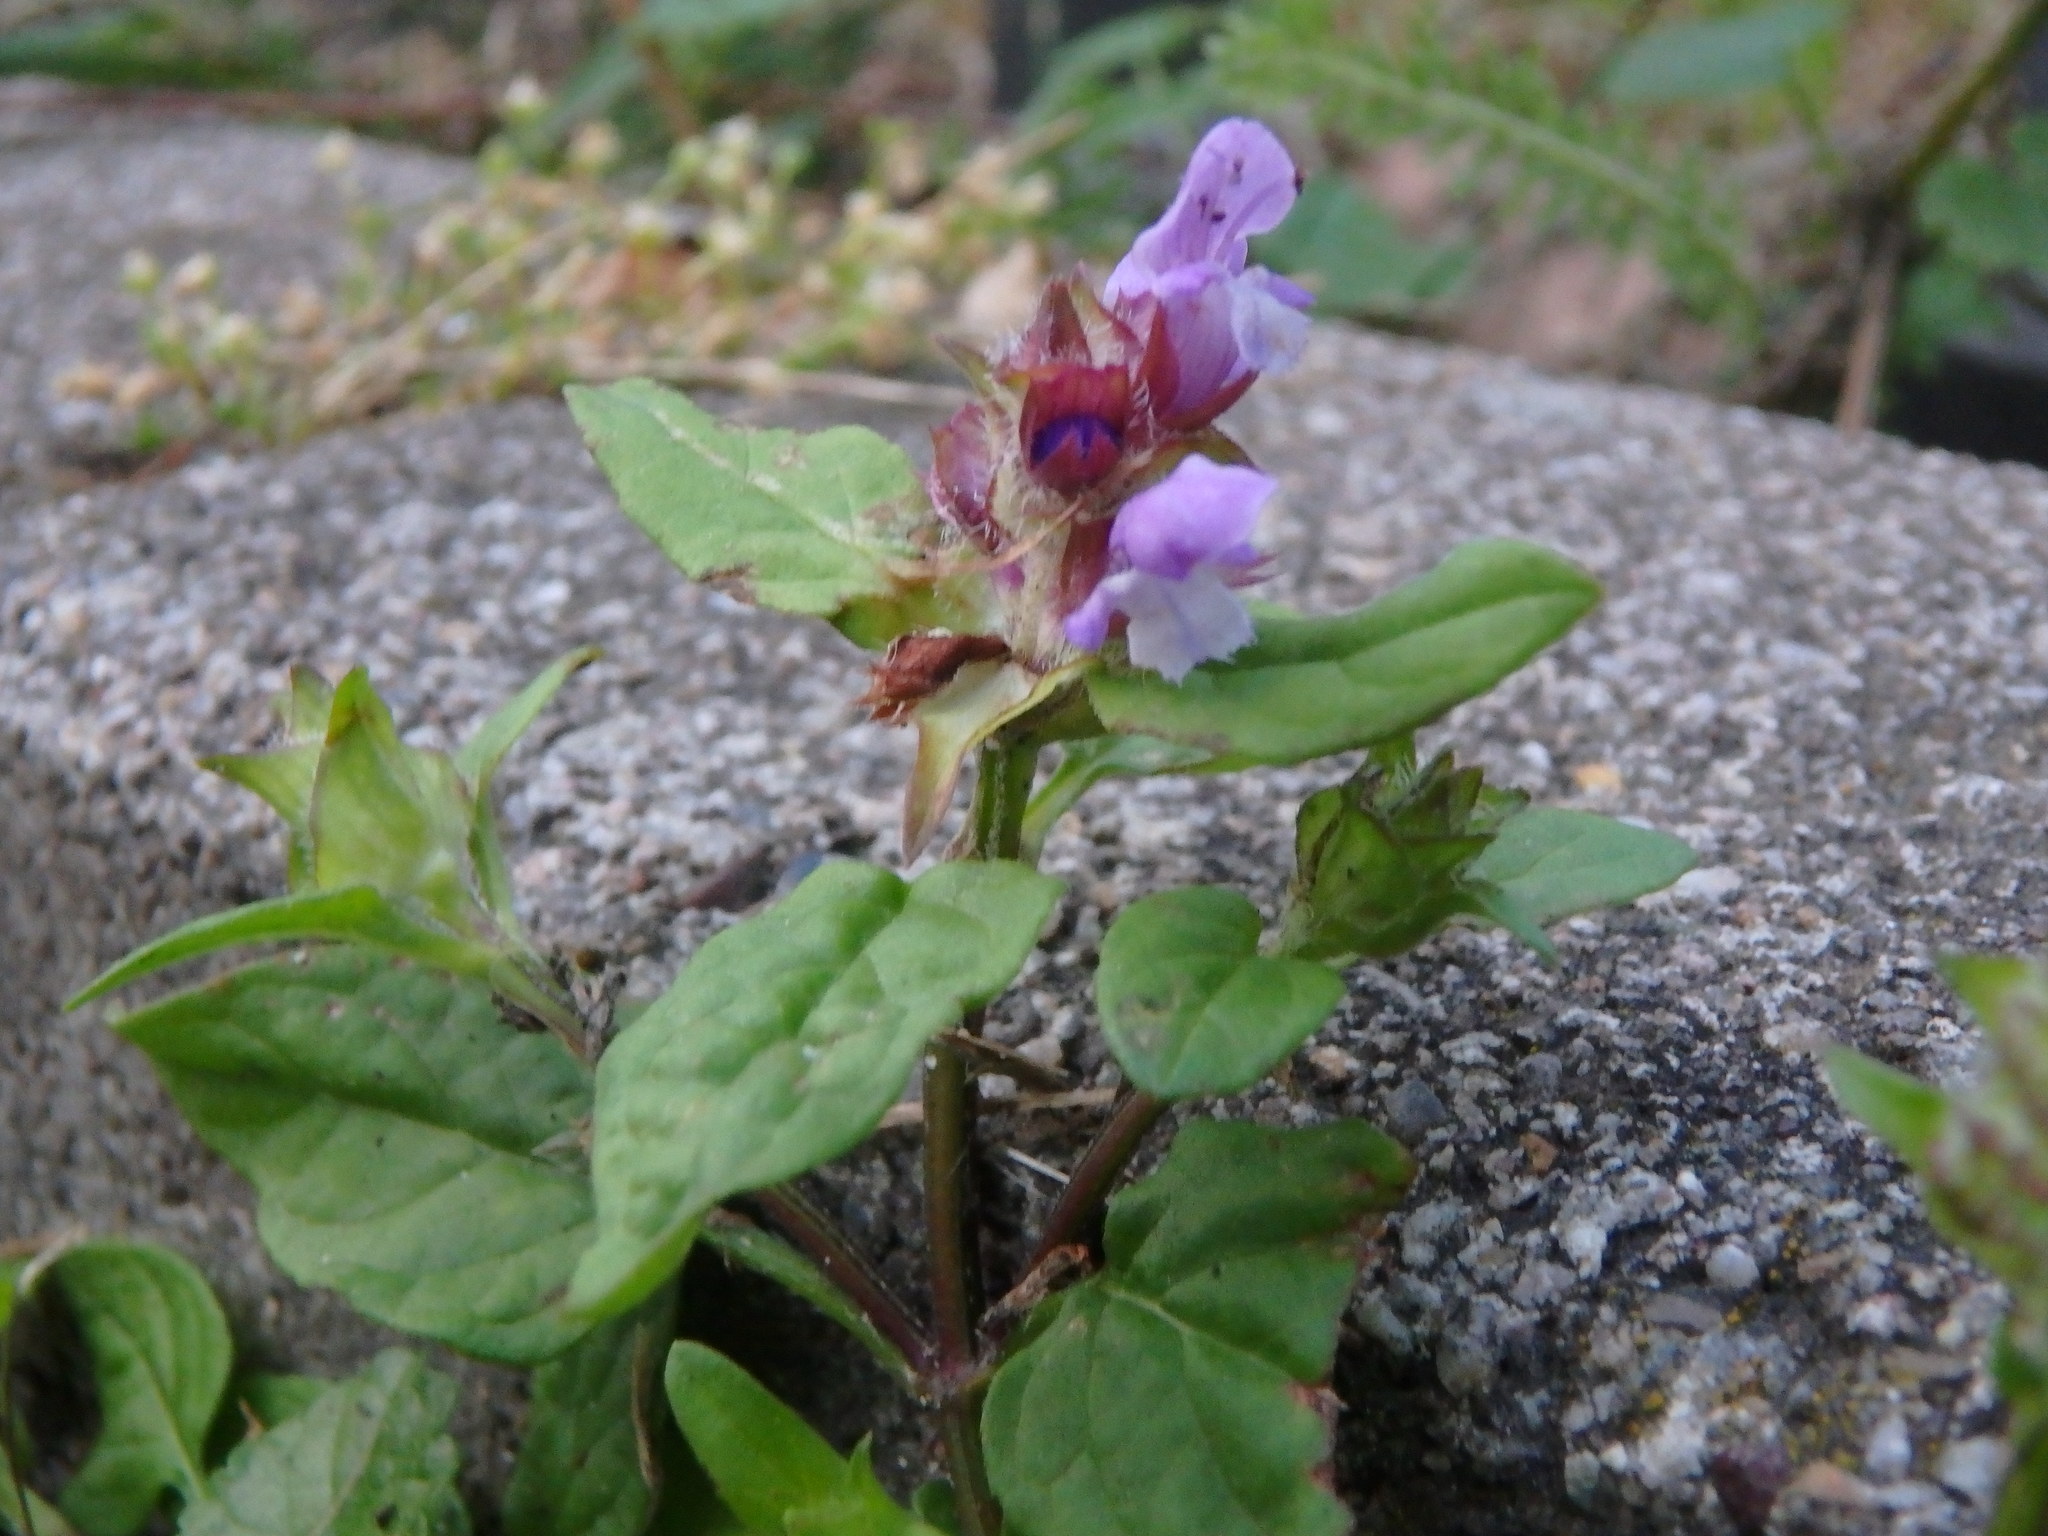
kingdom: Plantae
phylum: Tracheophyta
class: Magnoliopsida
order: Lamiales
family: Lamiaceae
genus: Prunella
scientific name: Prunella vulgaris
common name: Heal-all
